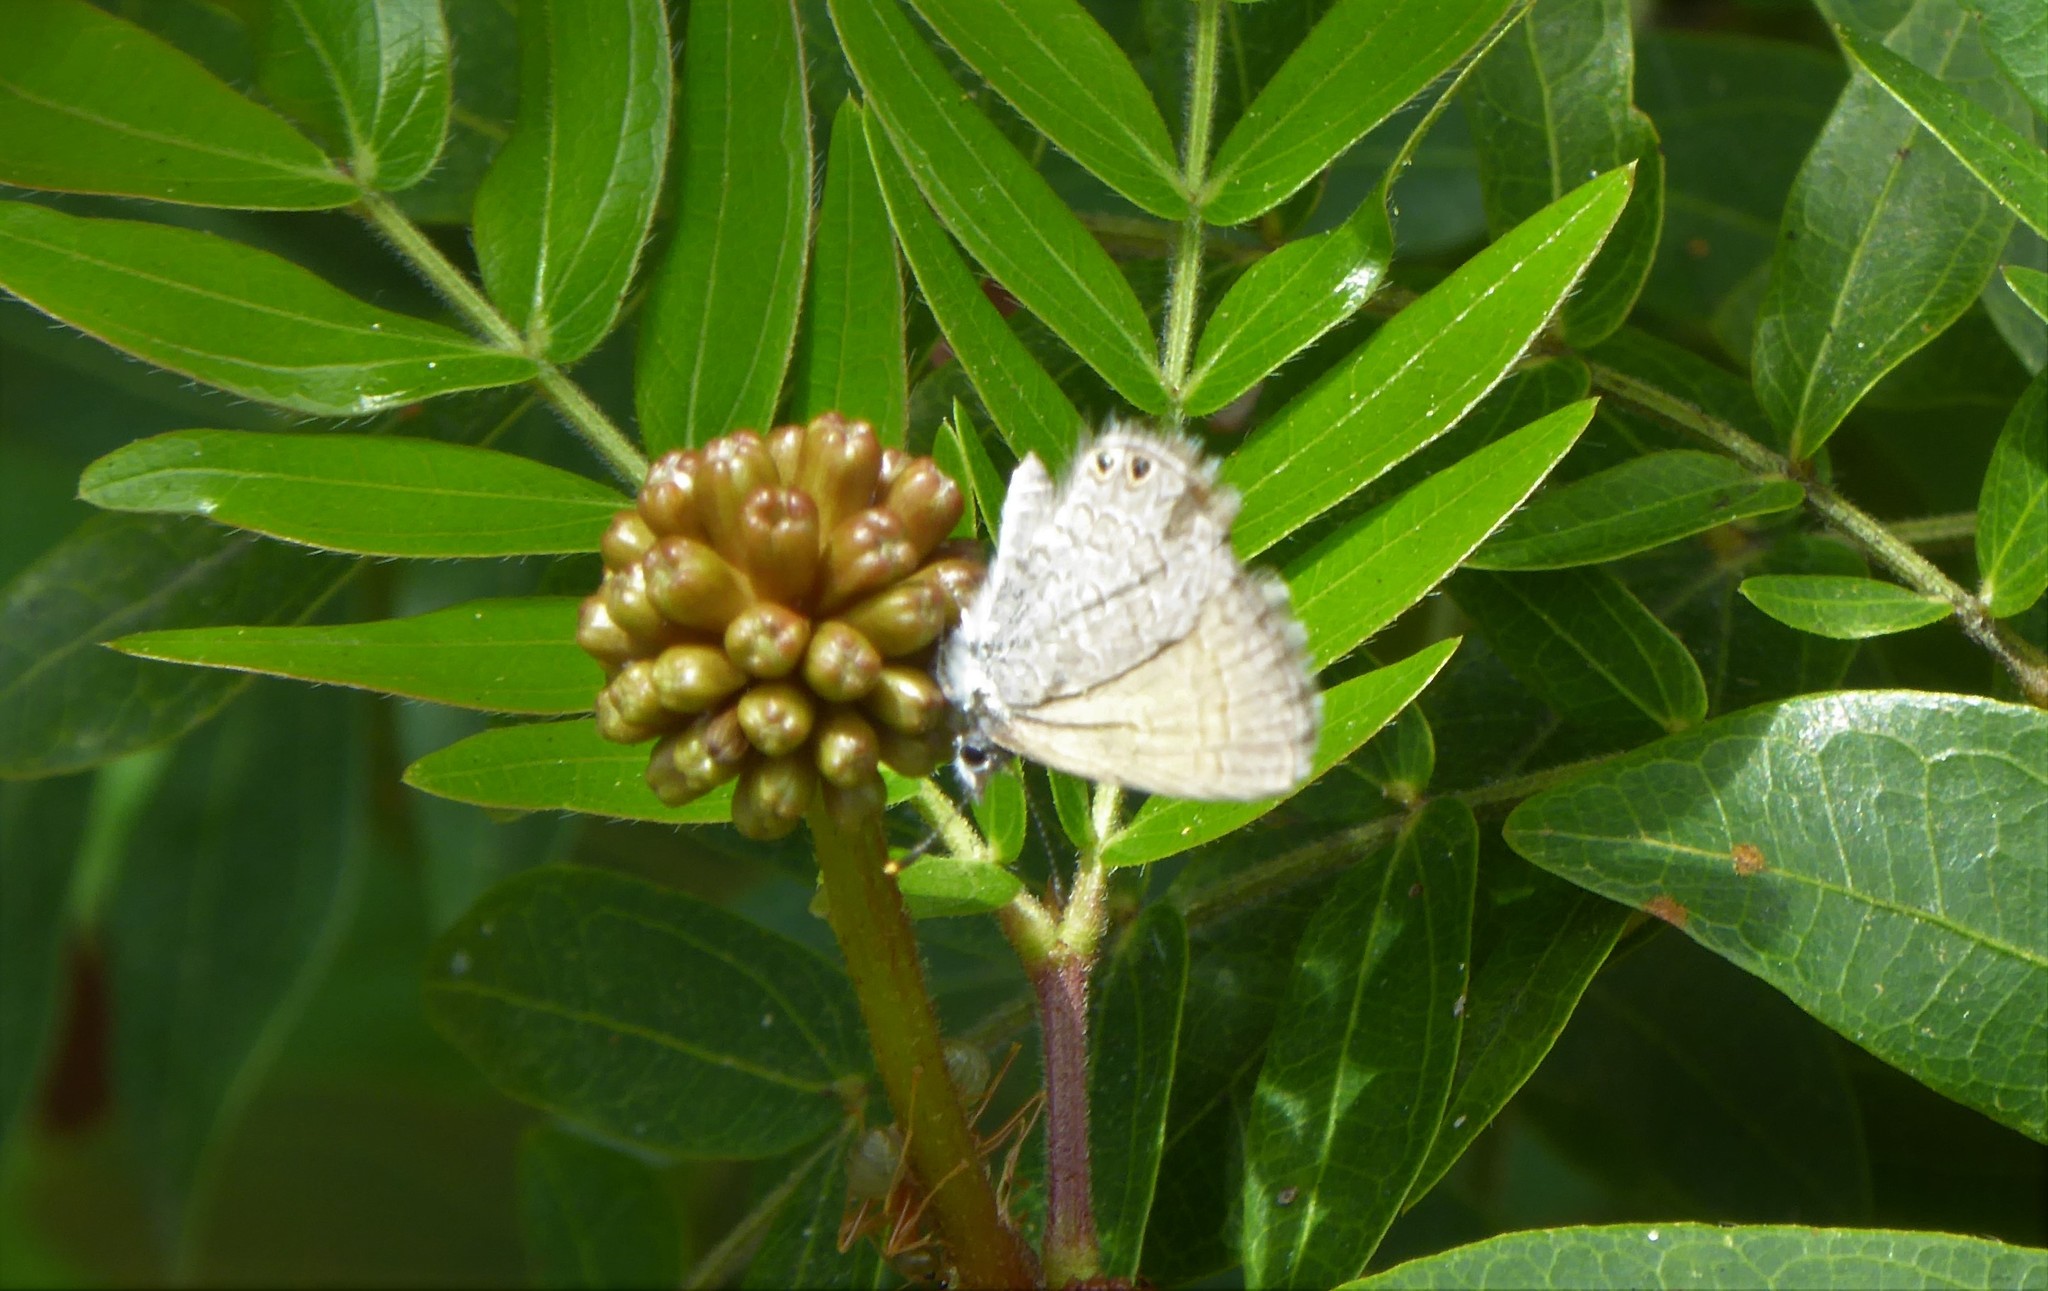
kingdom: Animalia
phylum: Arthropoda
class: Insecta
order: Lepidoptera
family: Lycaenidae
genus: Nacaduba
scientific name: Nacaduba biocellata
